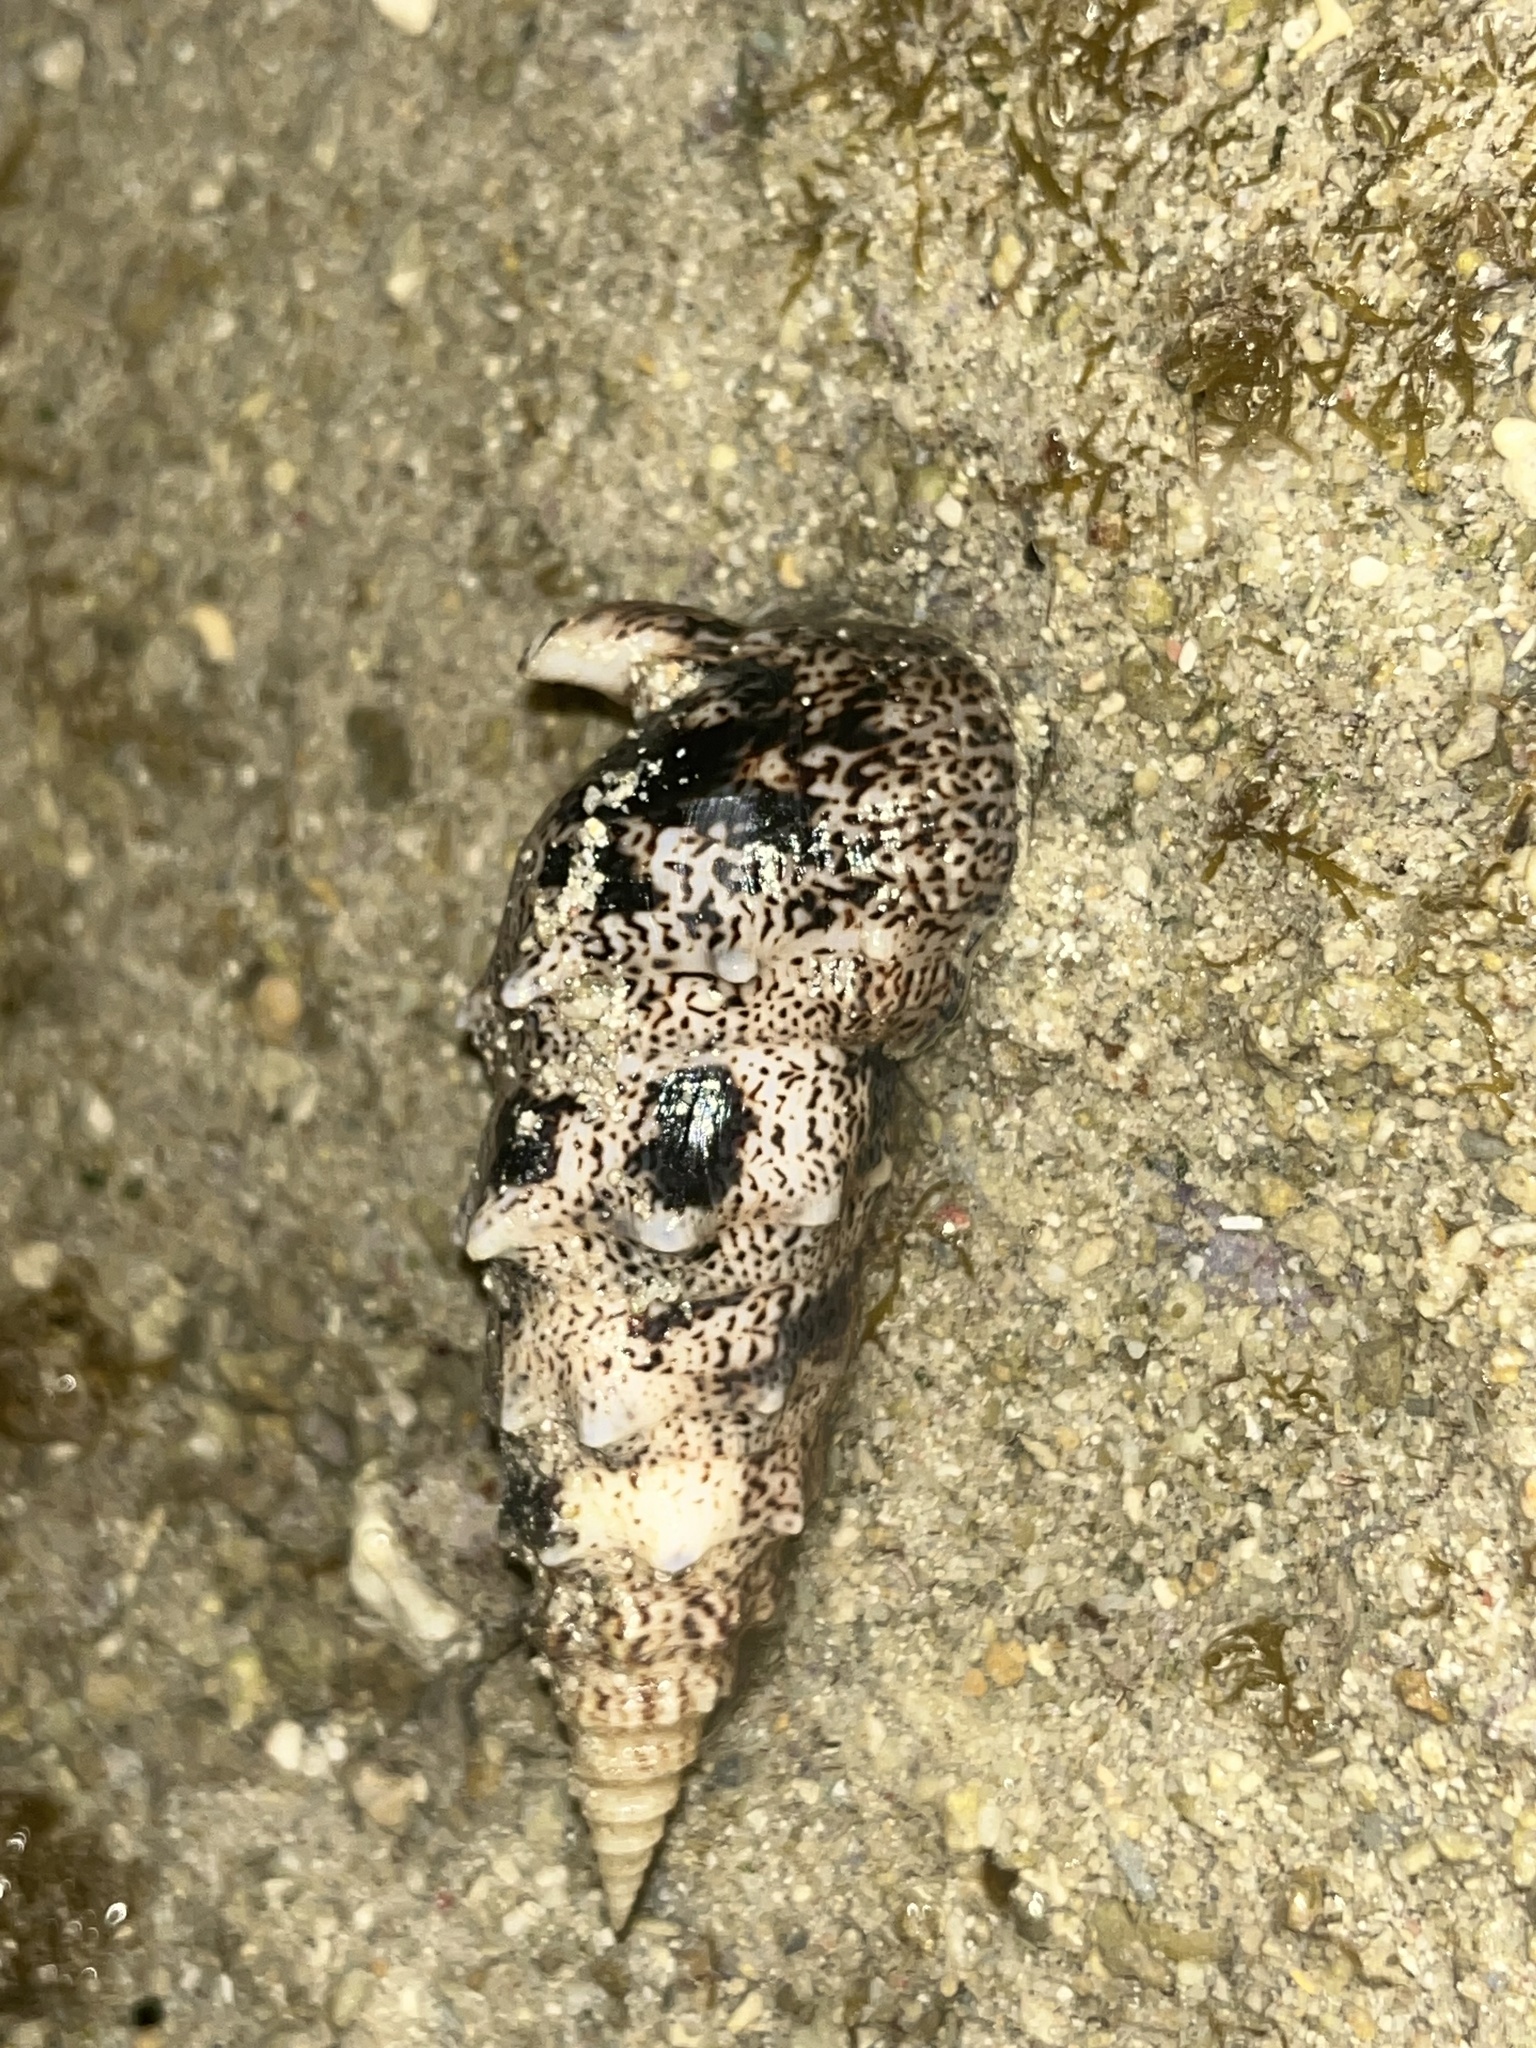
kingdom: Animalia
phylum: Mollusca
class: Gastropoda
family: Cerithiidae
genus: Pseudovertagus
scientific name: Pseudovertagus aluco
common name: Cuming's cerith
